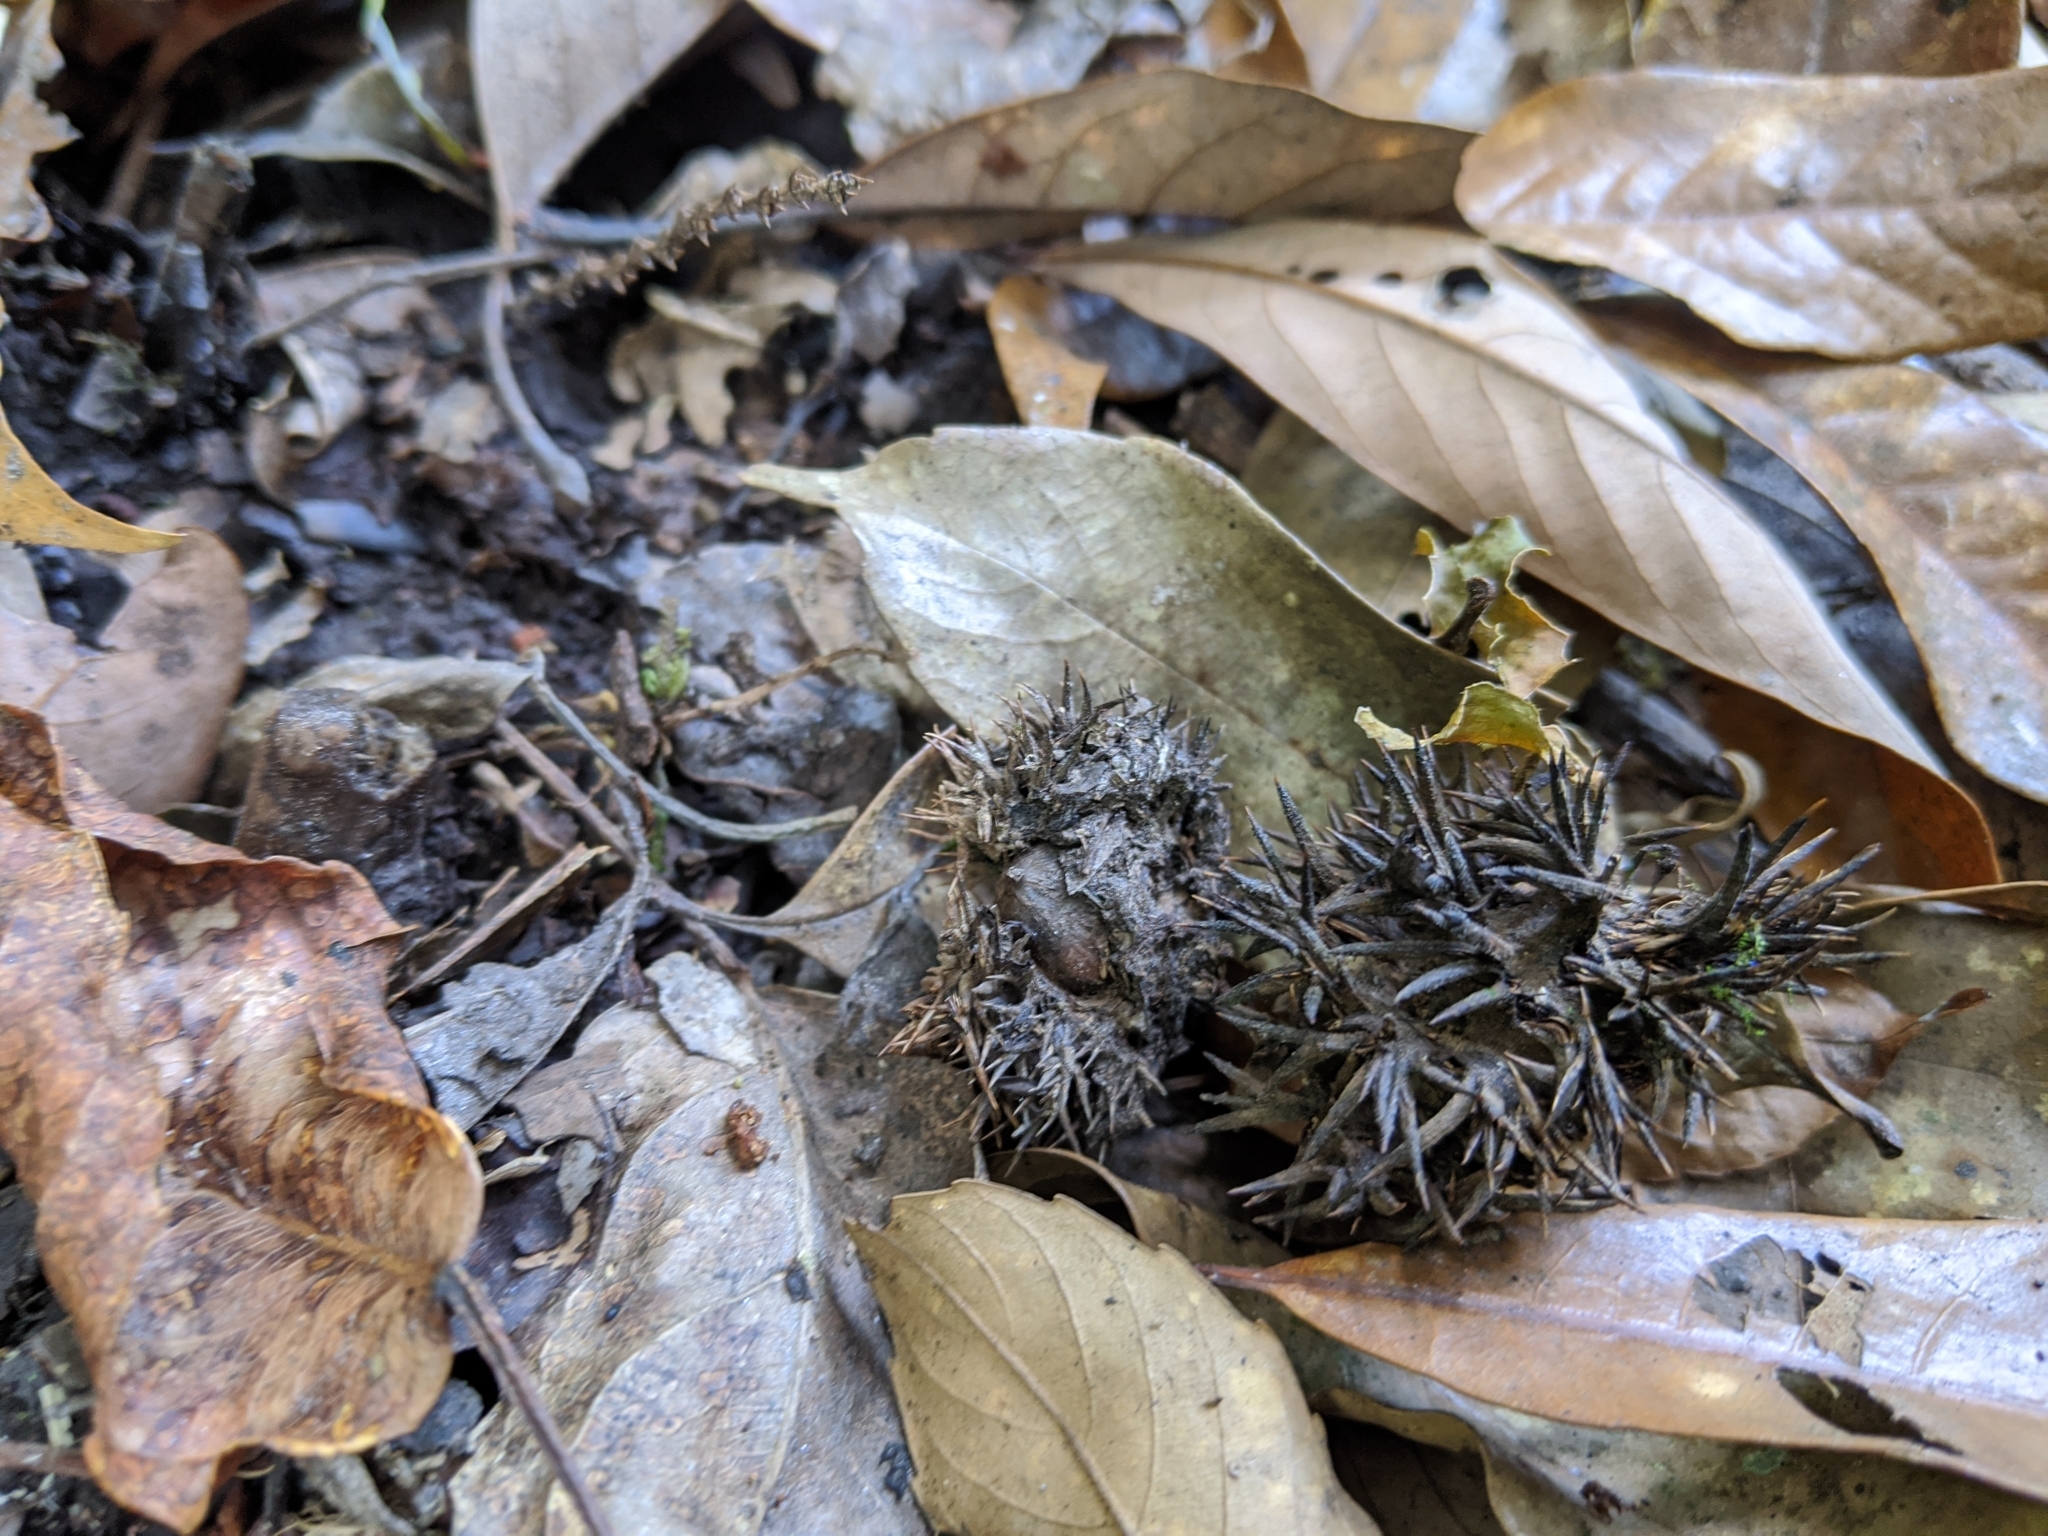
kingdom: Plantae
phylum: Tracheophyta
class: Magnoliopsida
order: Fagales
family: Fagaceae
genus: Castanopsis
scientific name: Castanopsis faberi
